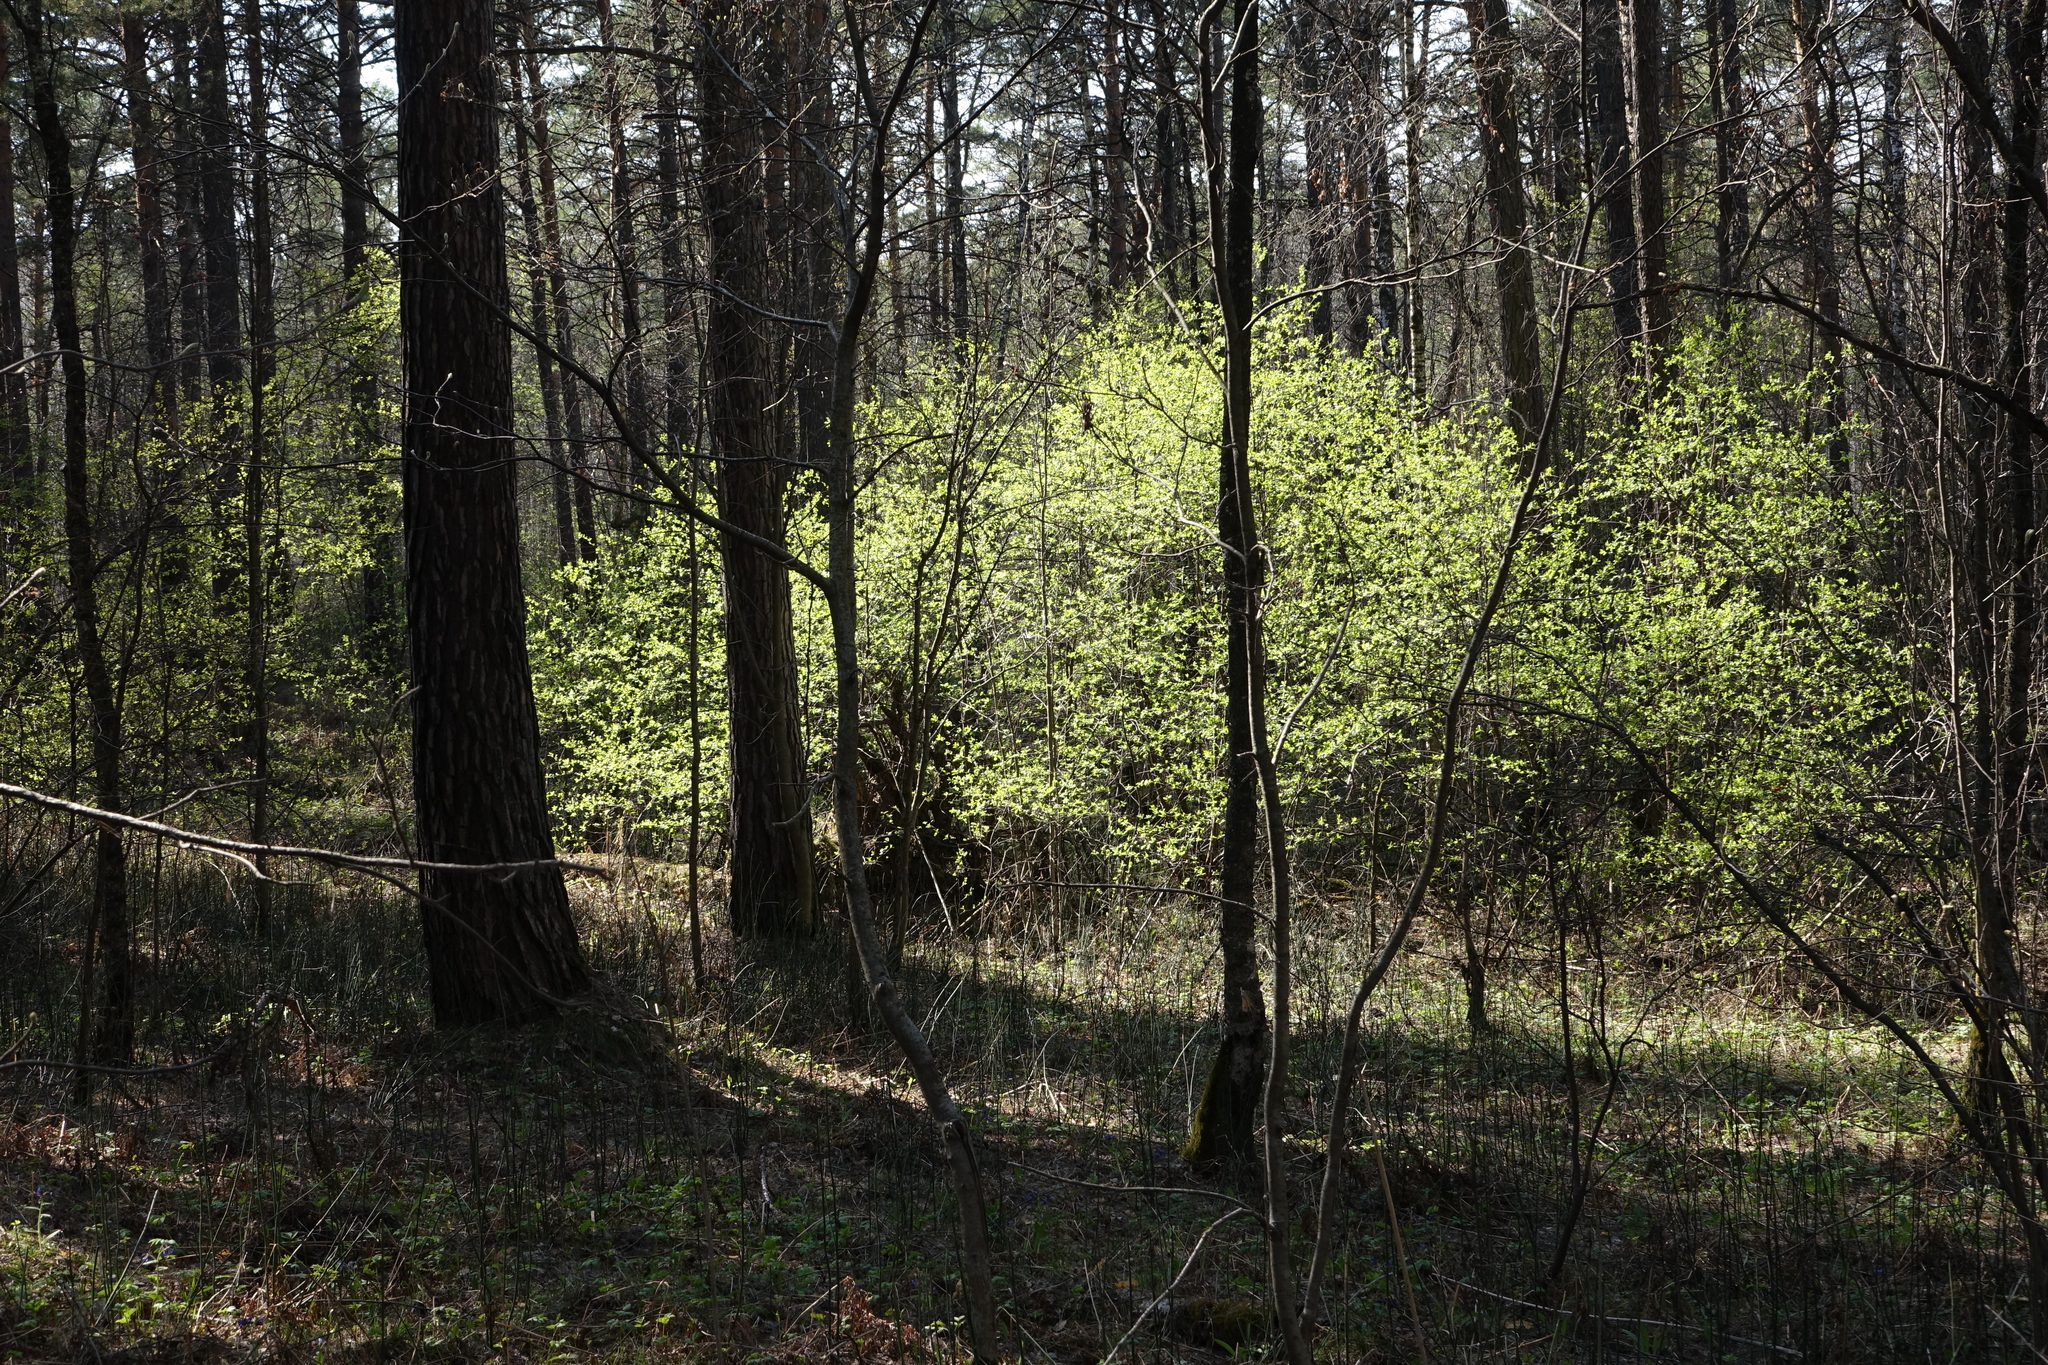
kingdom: Plantae
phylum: Tracheophyta
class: Magnoliopsida
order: Rosales
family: Rosaceae
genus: Prunus
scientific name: Prunus padus
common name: Bird cherry
